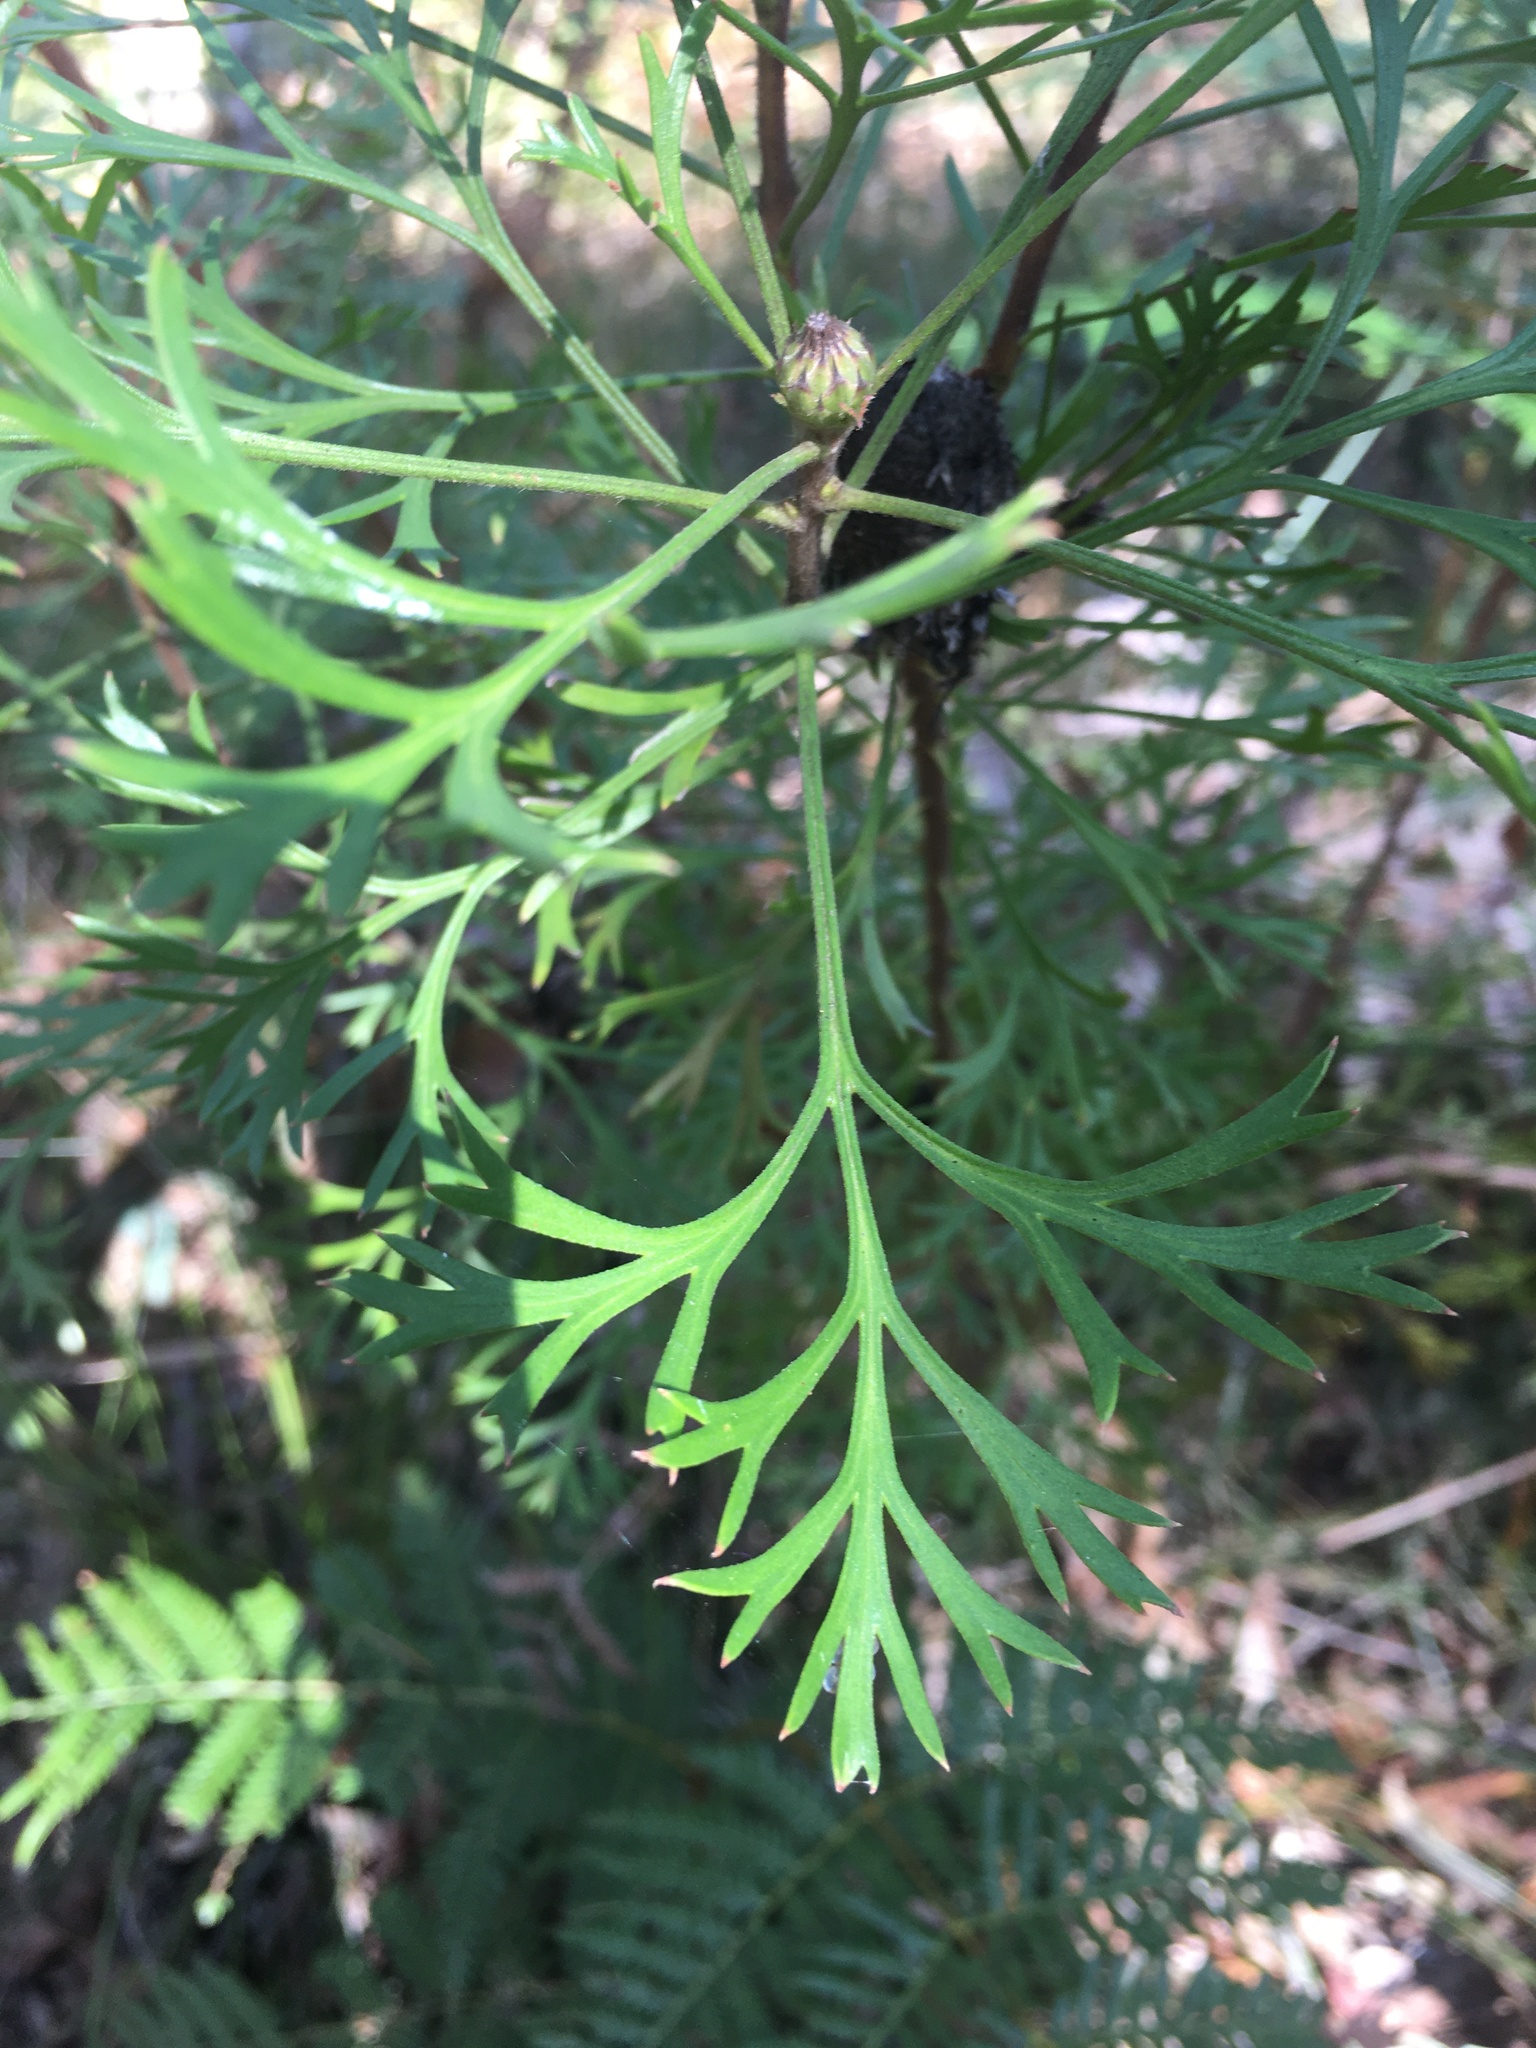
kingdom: Plantae
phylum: Tracheophyta
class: Magnoliopsida
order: Proteales
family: Proteaceae
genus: Isopogon
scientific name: Isopogon anemonifolius
